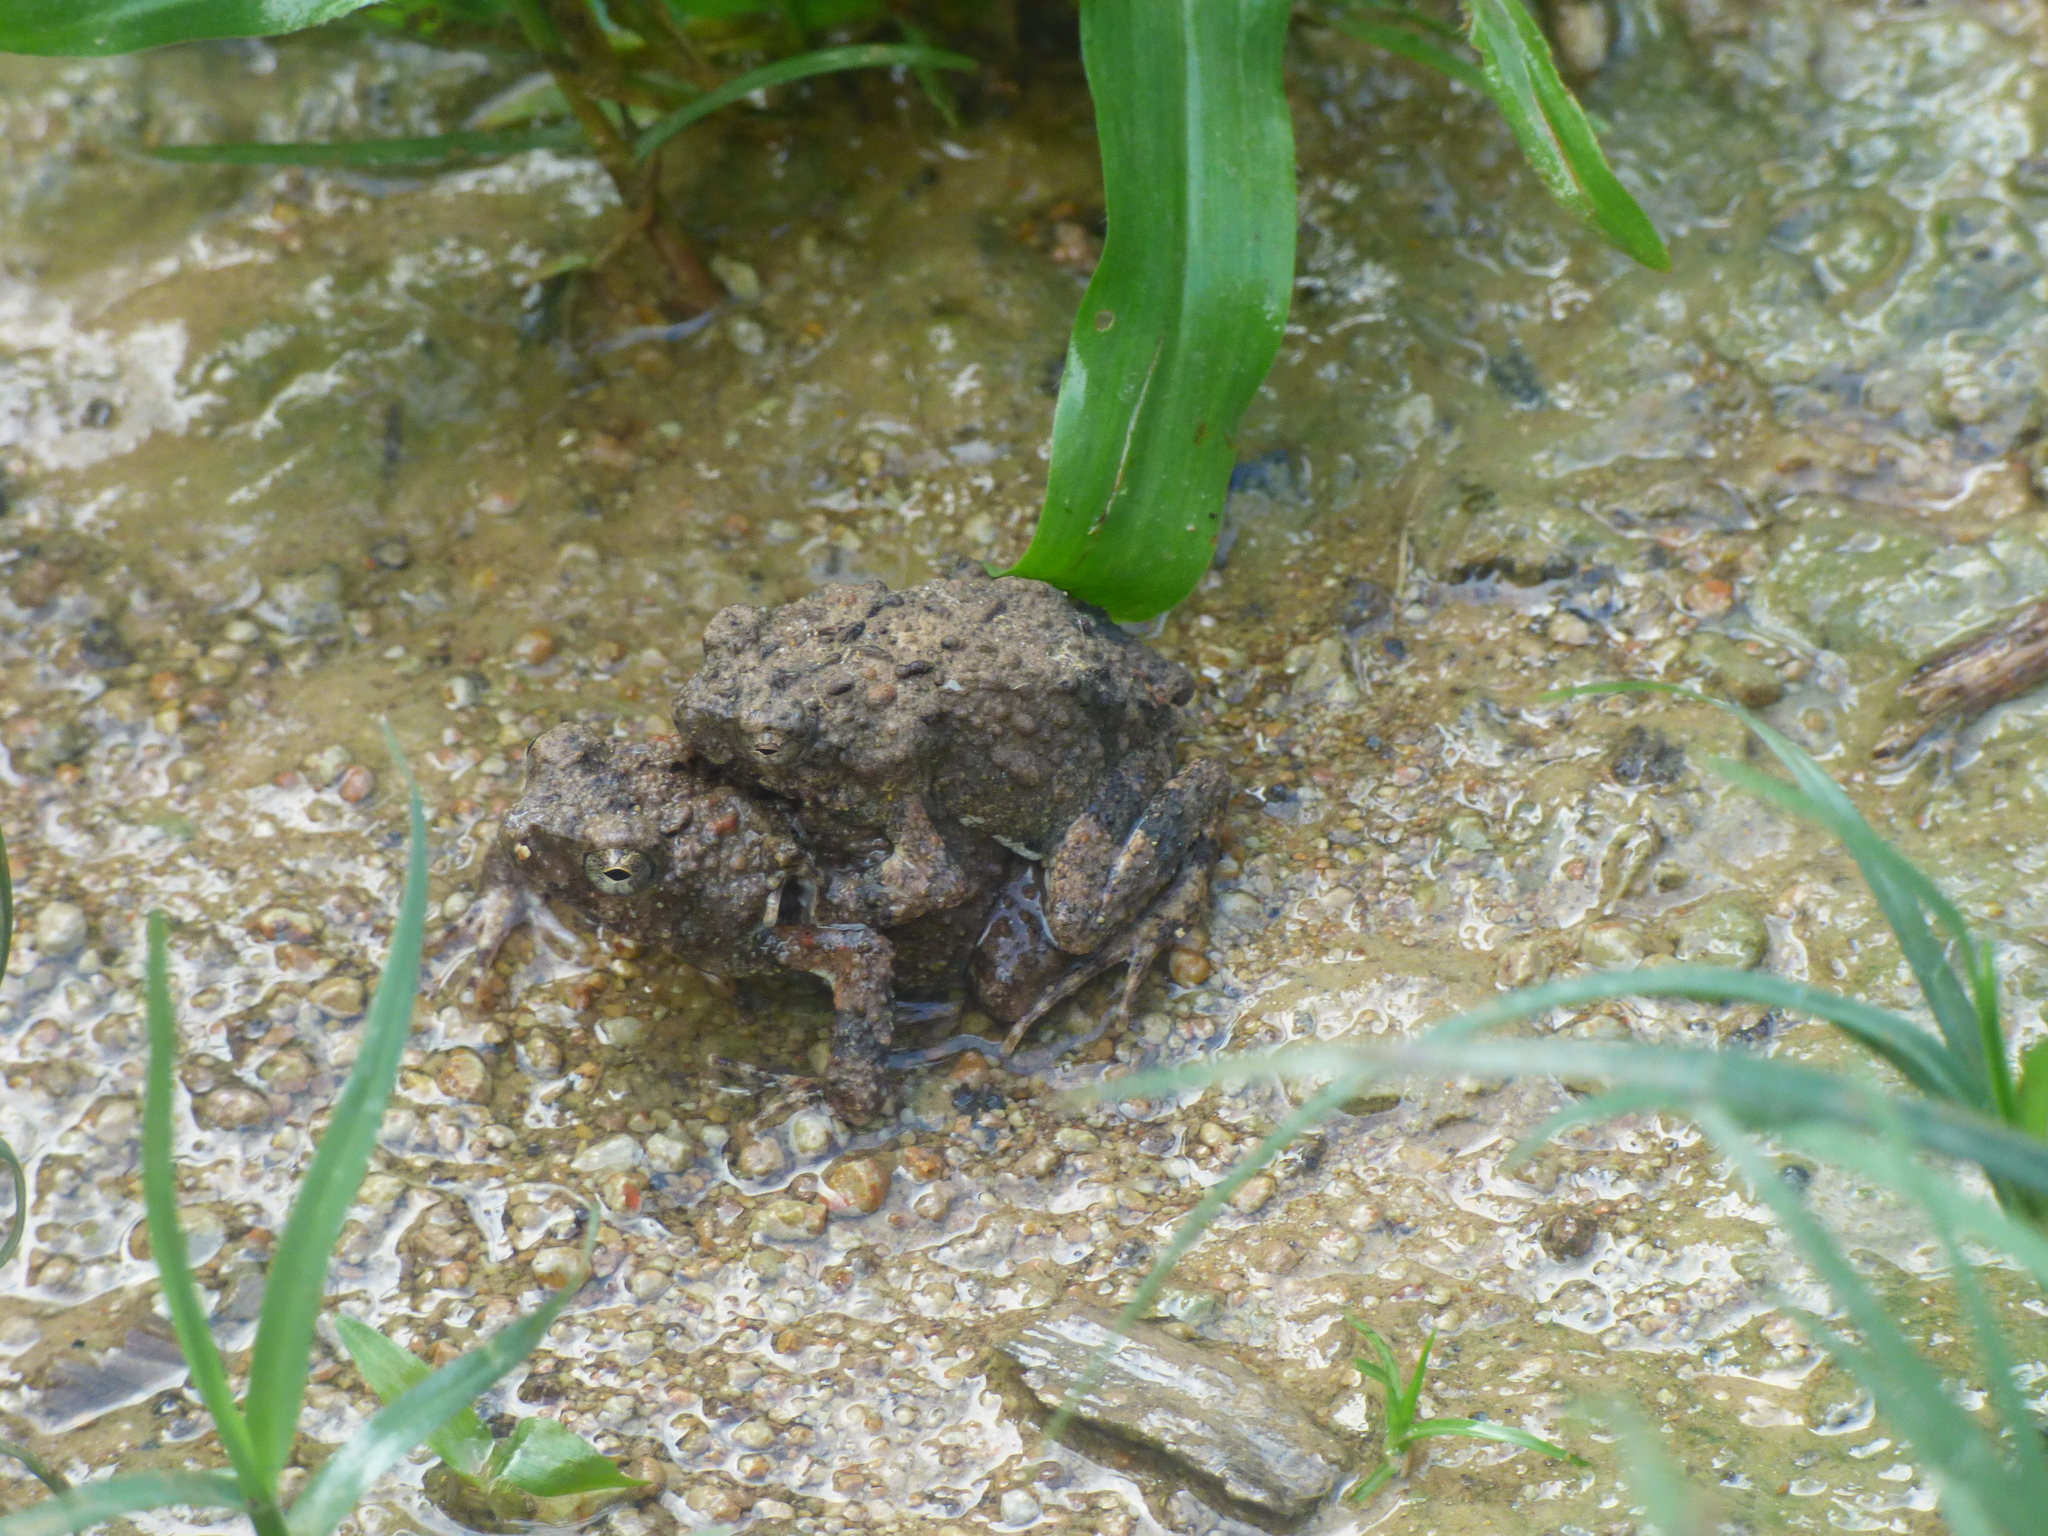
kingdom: Animalia
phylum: Chordata
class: Amphibia
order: Anura
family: Leptodactylidae
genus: Engystomops
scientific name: Engystomops pustulosus
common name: Tungara frog
